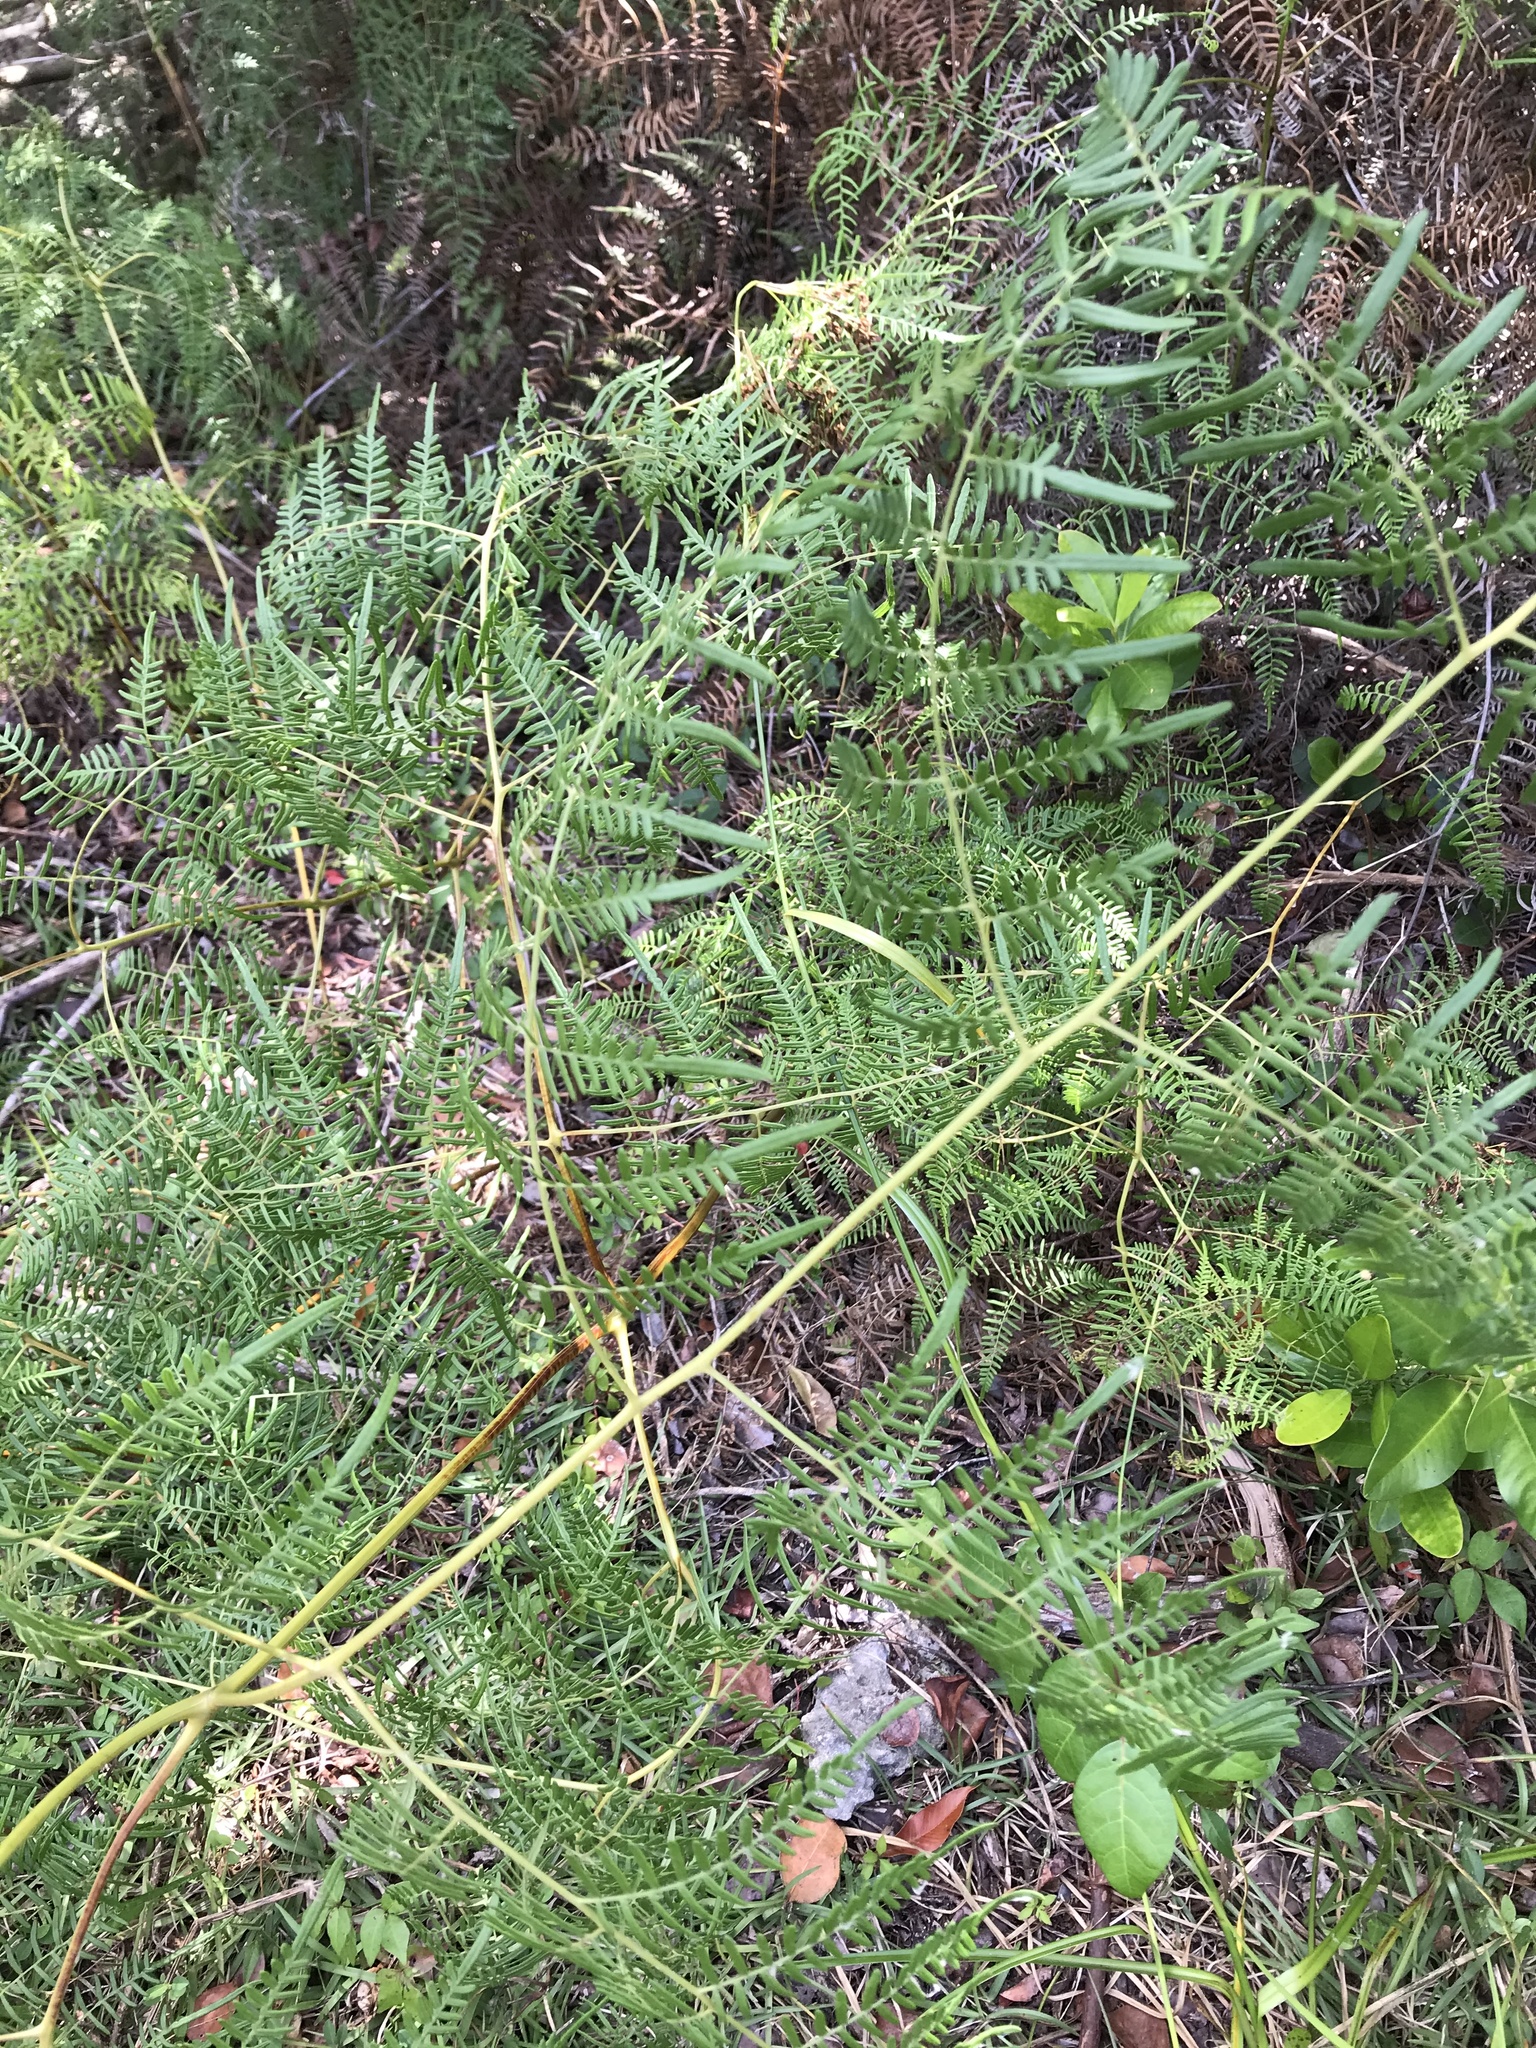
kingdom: Plantae
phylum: Tracheophyta
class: Polypodiopsida
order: Polypodiales
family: Dennstaedtiaceae
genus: Pteridium
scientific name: Pteridium caudatum
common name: Southern bracken fern
